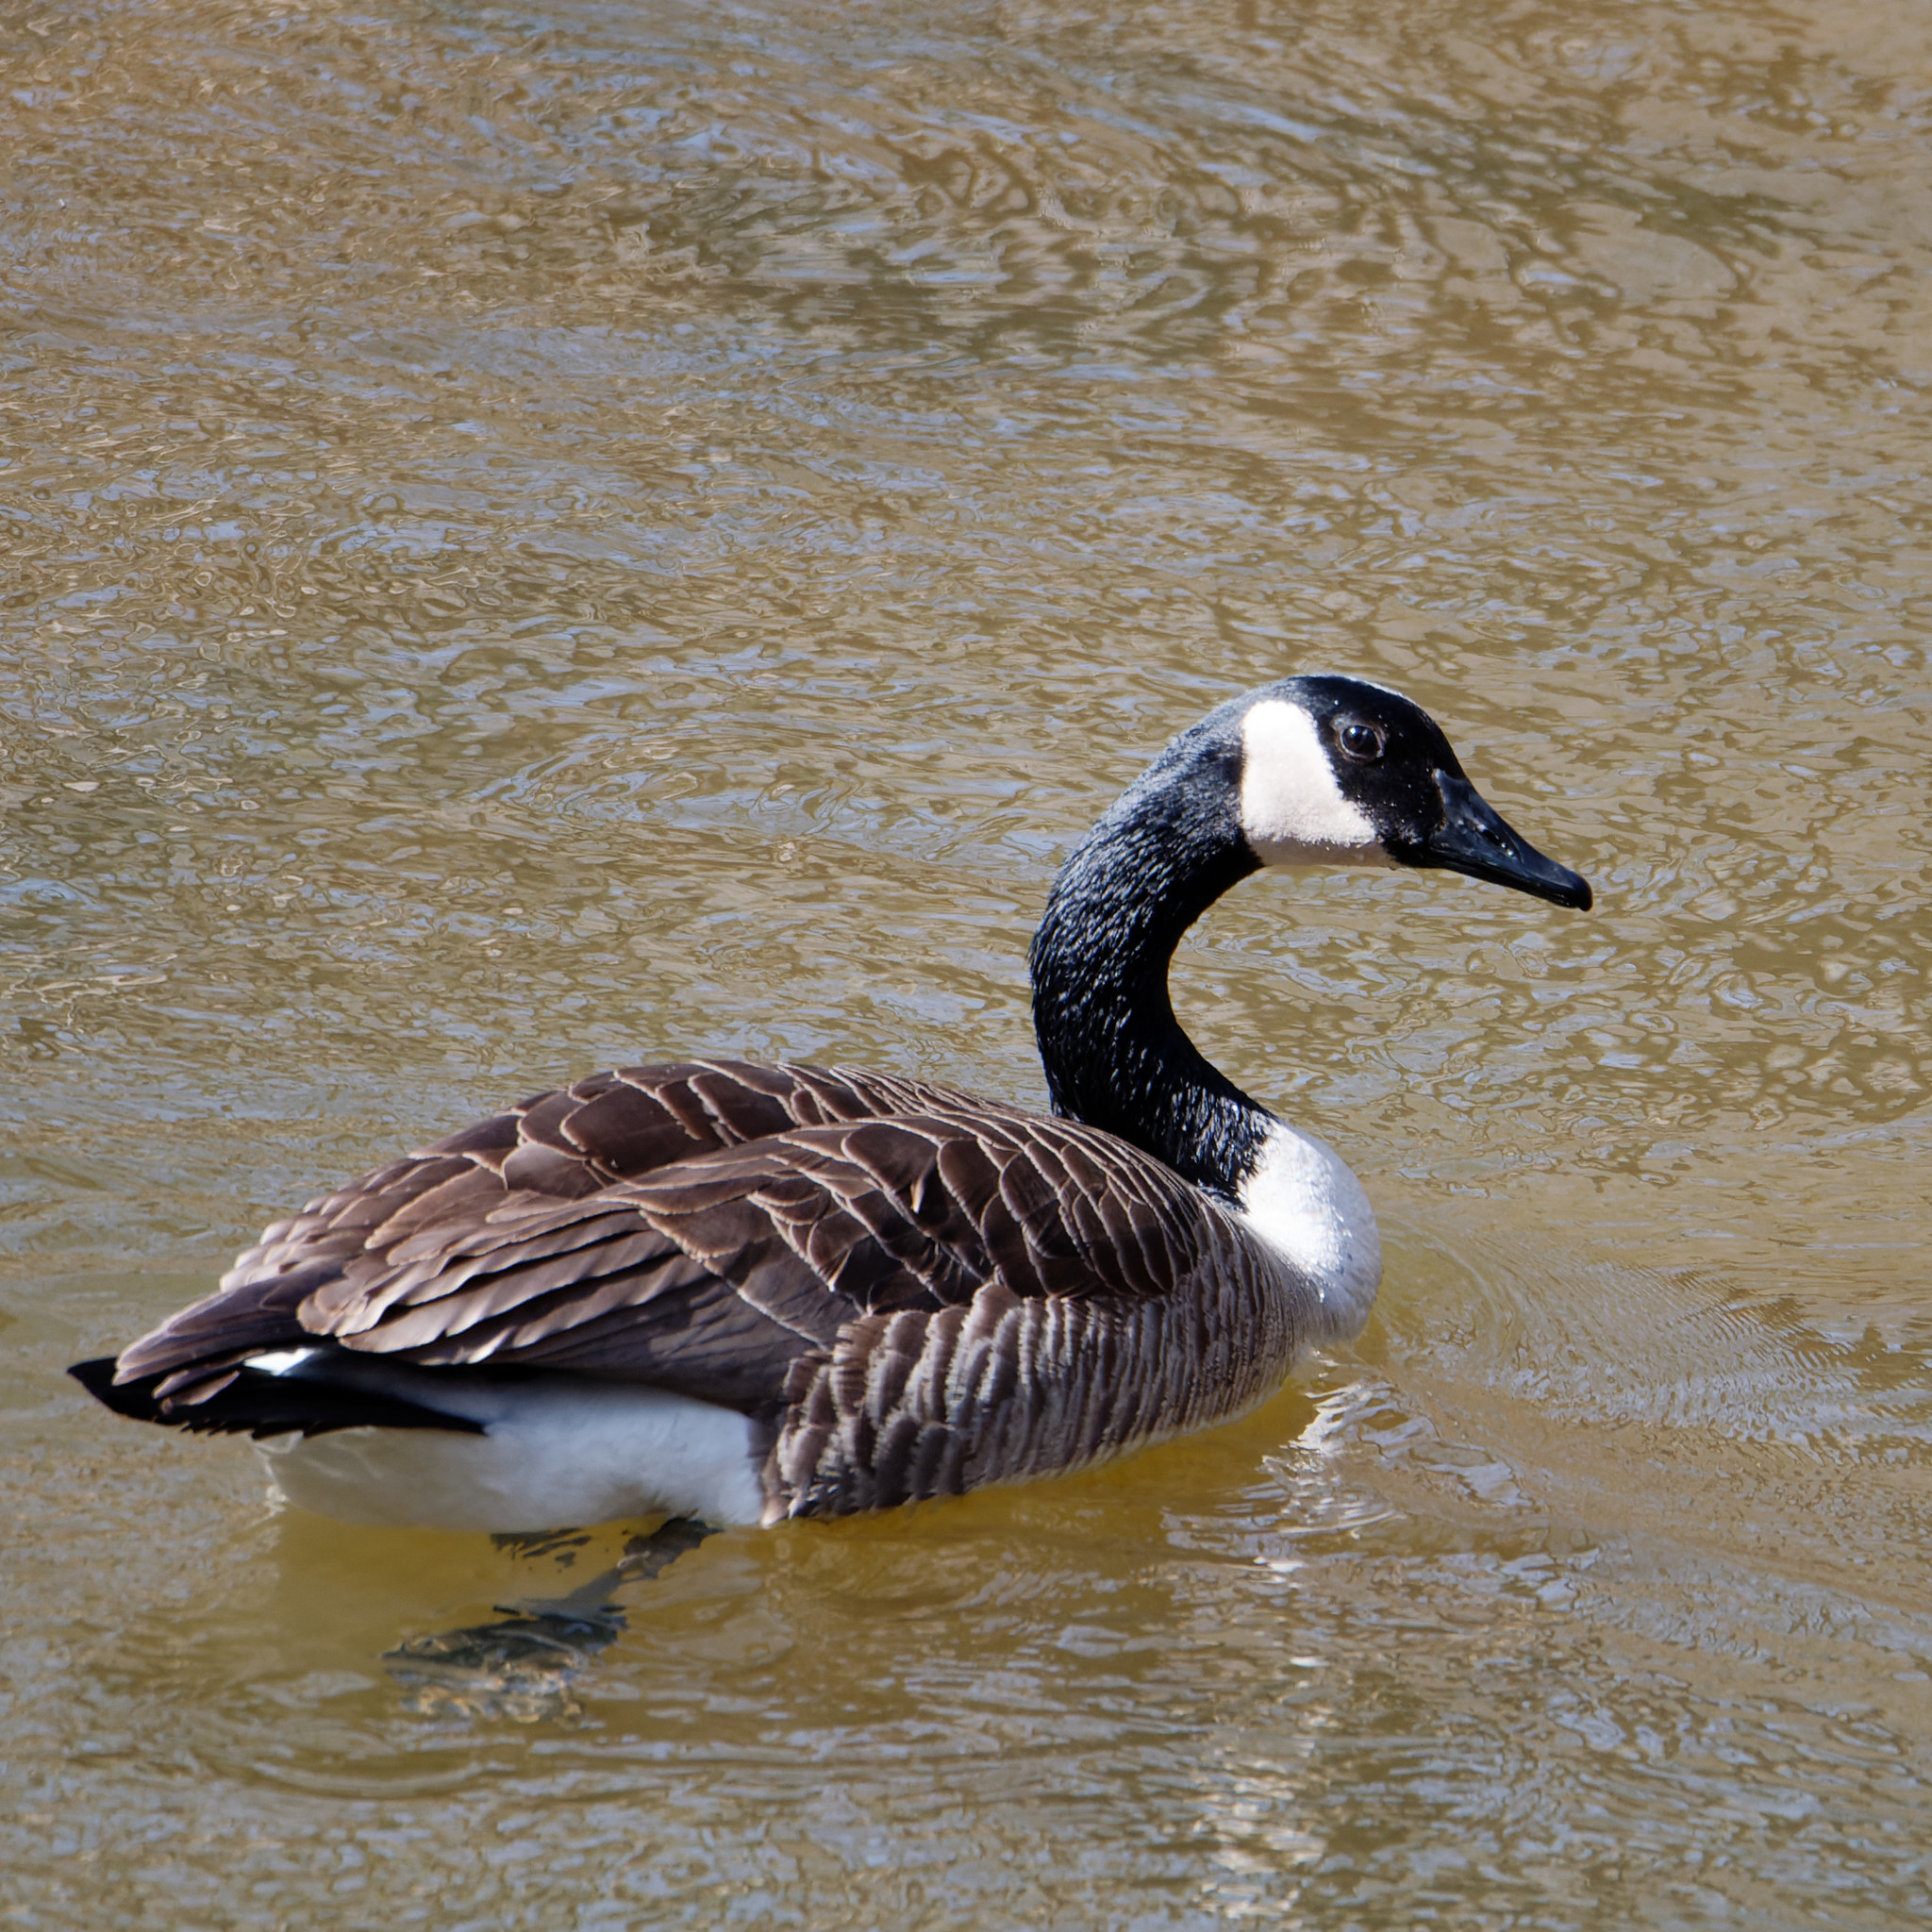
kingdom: Animalia
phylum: Chordata
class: Aves
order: Anseriformes
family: Anatidae
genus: Branta
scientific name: Branta canadensis
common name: Canada goose
